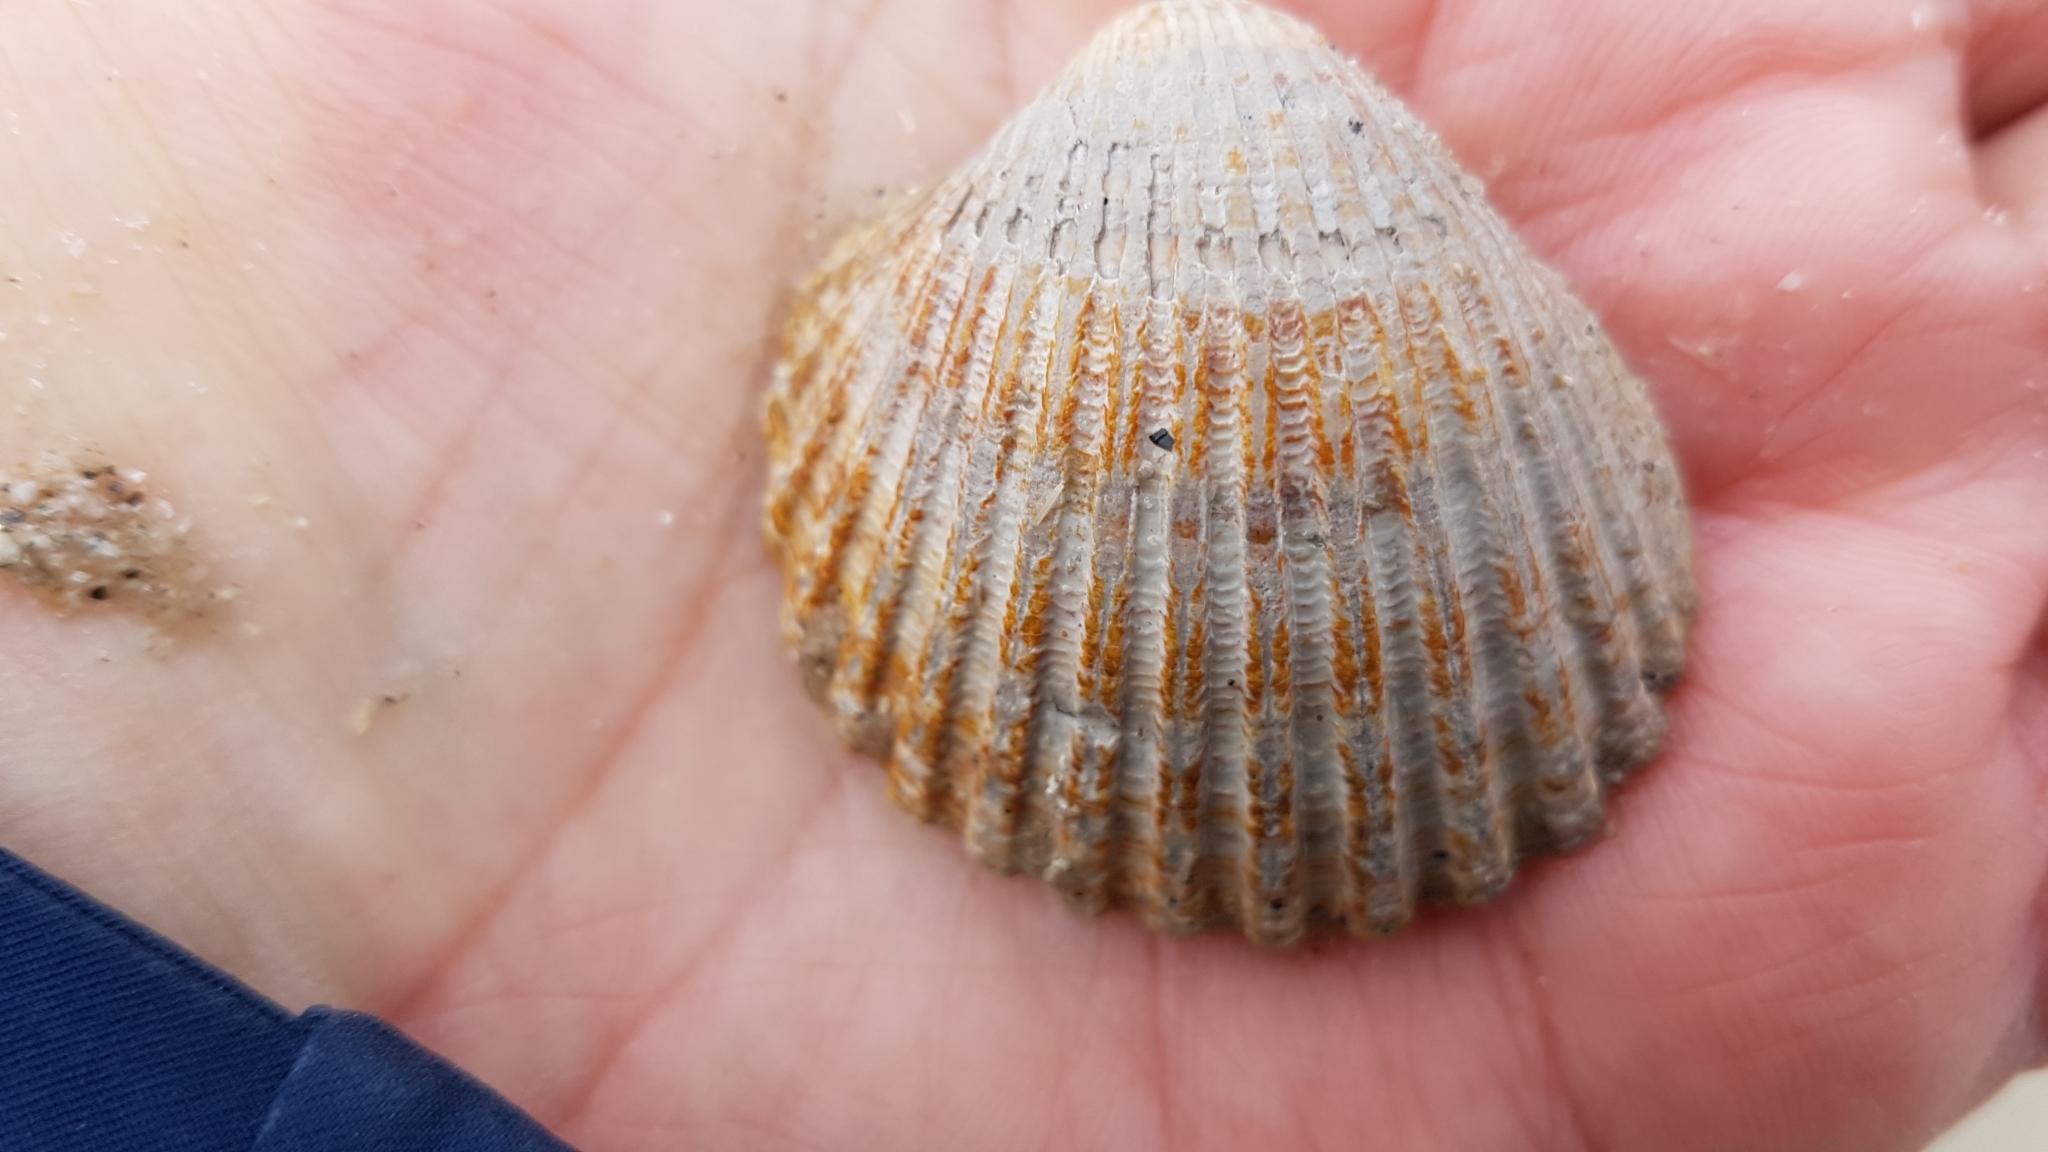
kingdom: Animalia
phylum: Mollusca
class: Bivalvia
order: Cardiida
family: Cardiidae
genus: Acanthocardia
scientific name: Acanthocardia echinata
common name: Prickly cockle
